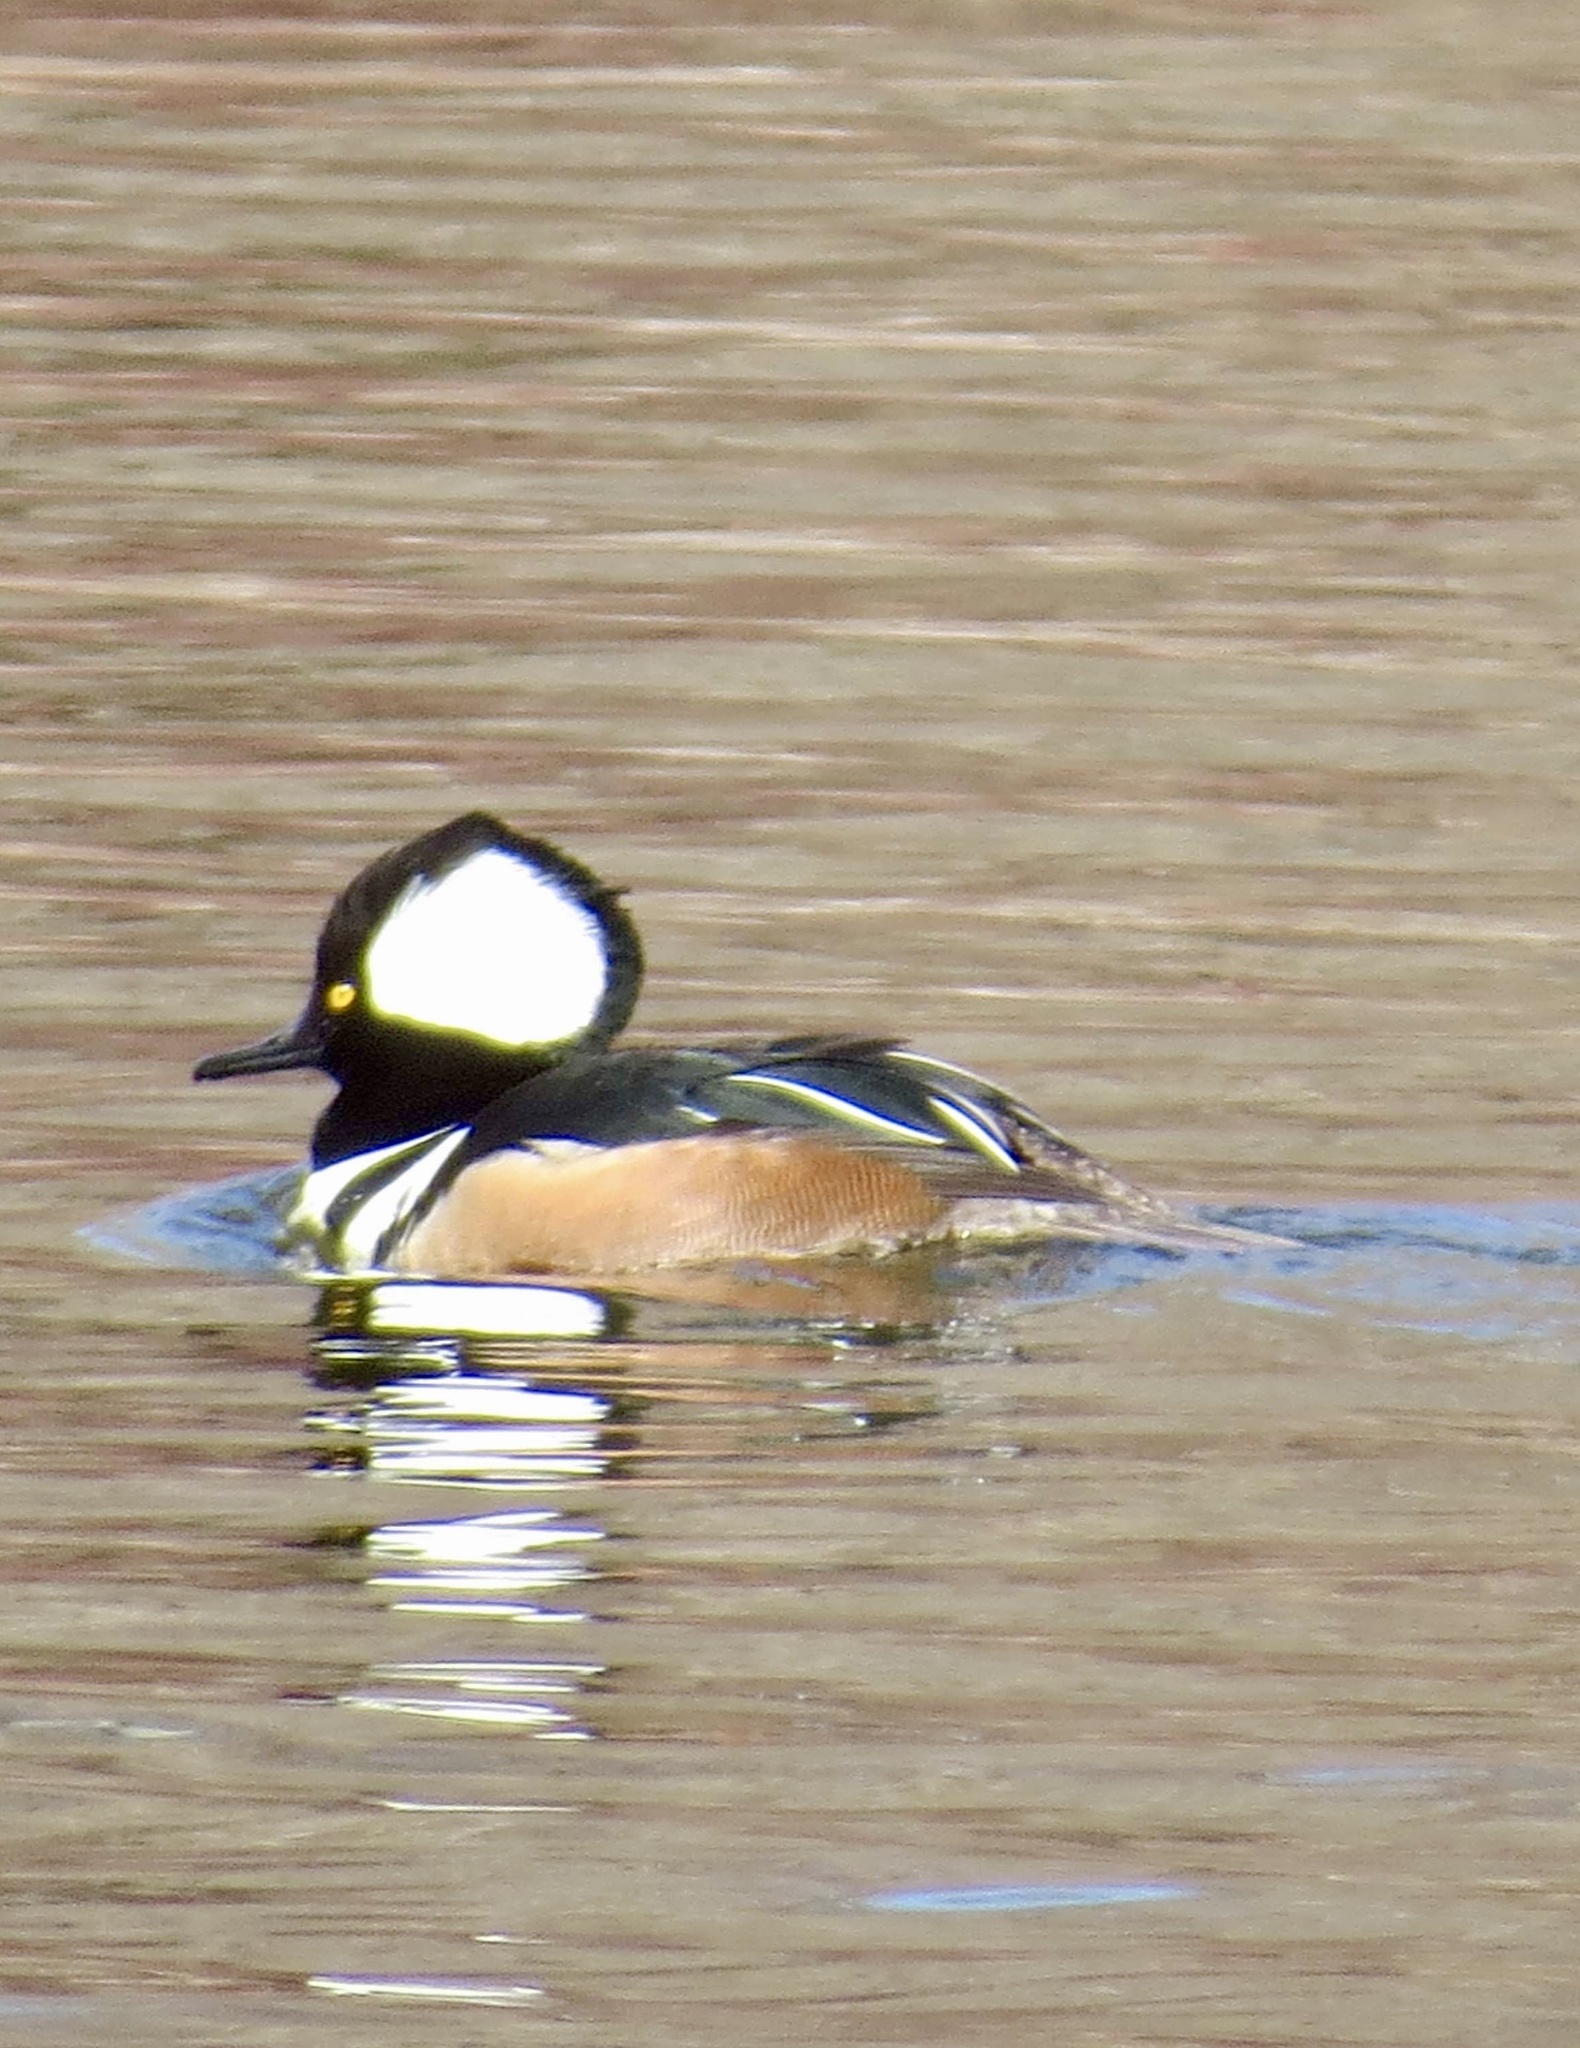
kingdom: Animalia
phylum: Chordata
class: Aves
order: Anseriformes
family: Anatidae
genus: Lophodytes
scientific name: Lophodytes cucullatus
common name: Hooded merganser
